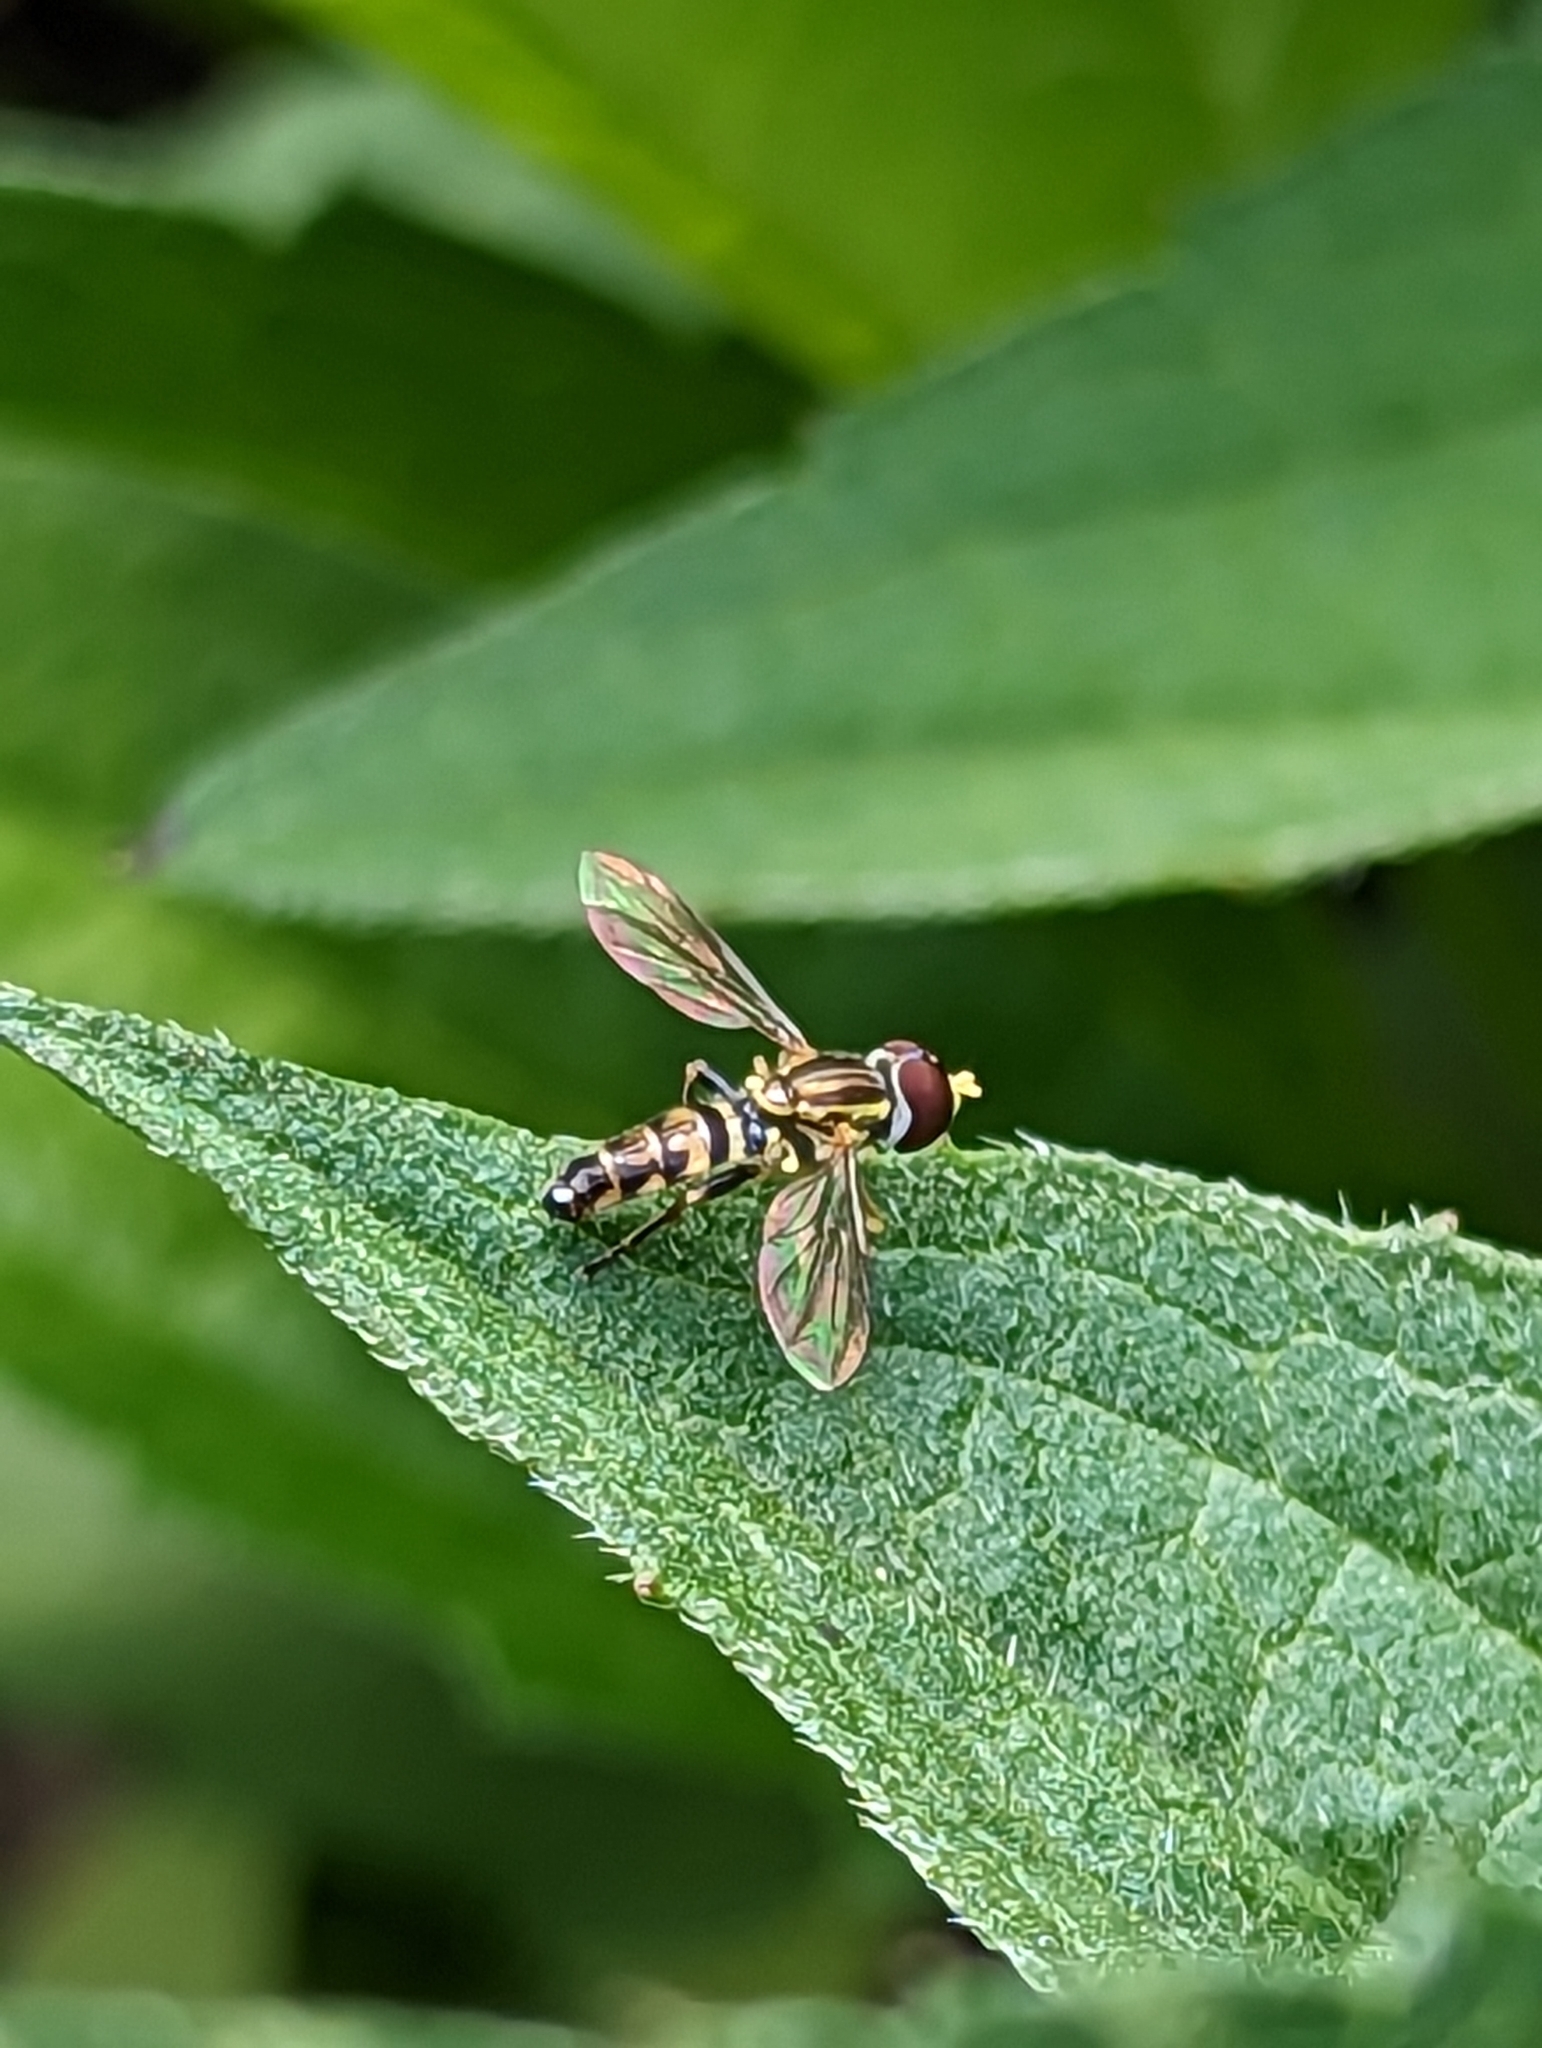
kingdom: Animalia
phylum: Arthropoda
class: Insecta
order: Diptera
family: Syrphidae
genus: Toxomerus
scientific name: Toxomerus geminatus
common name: Eastern calligrapher
